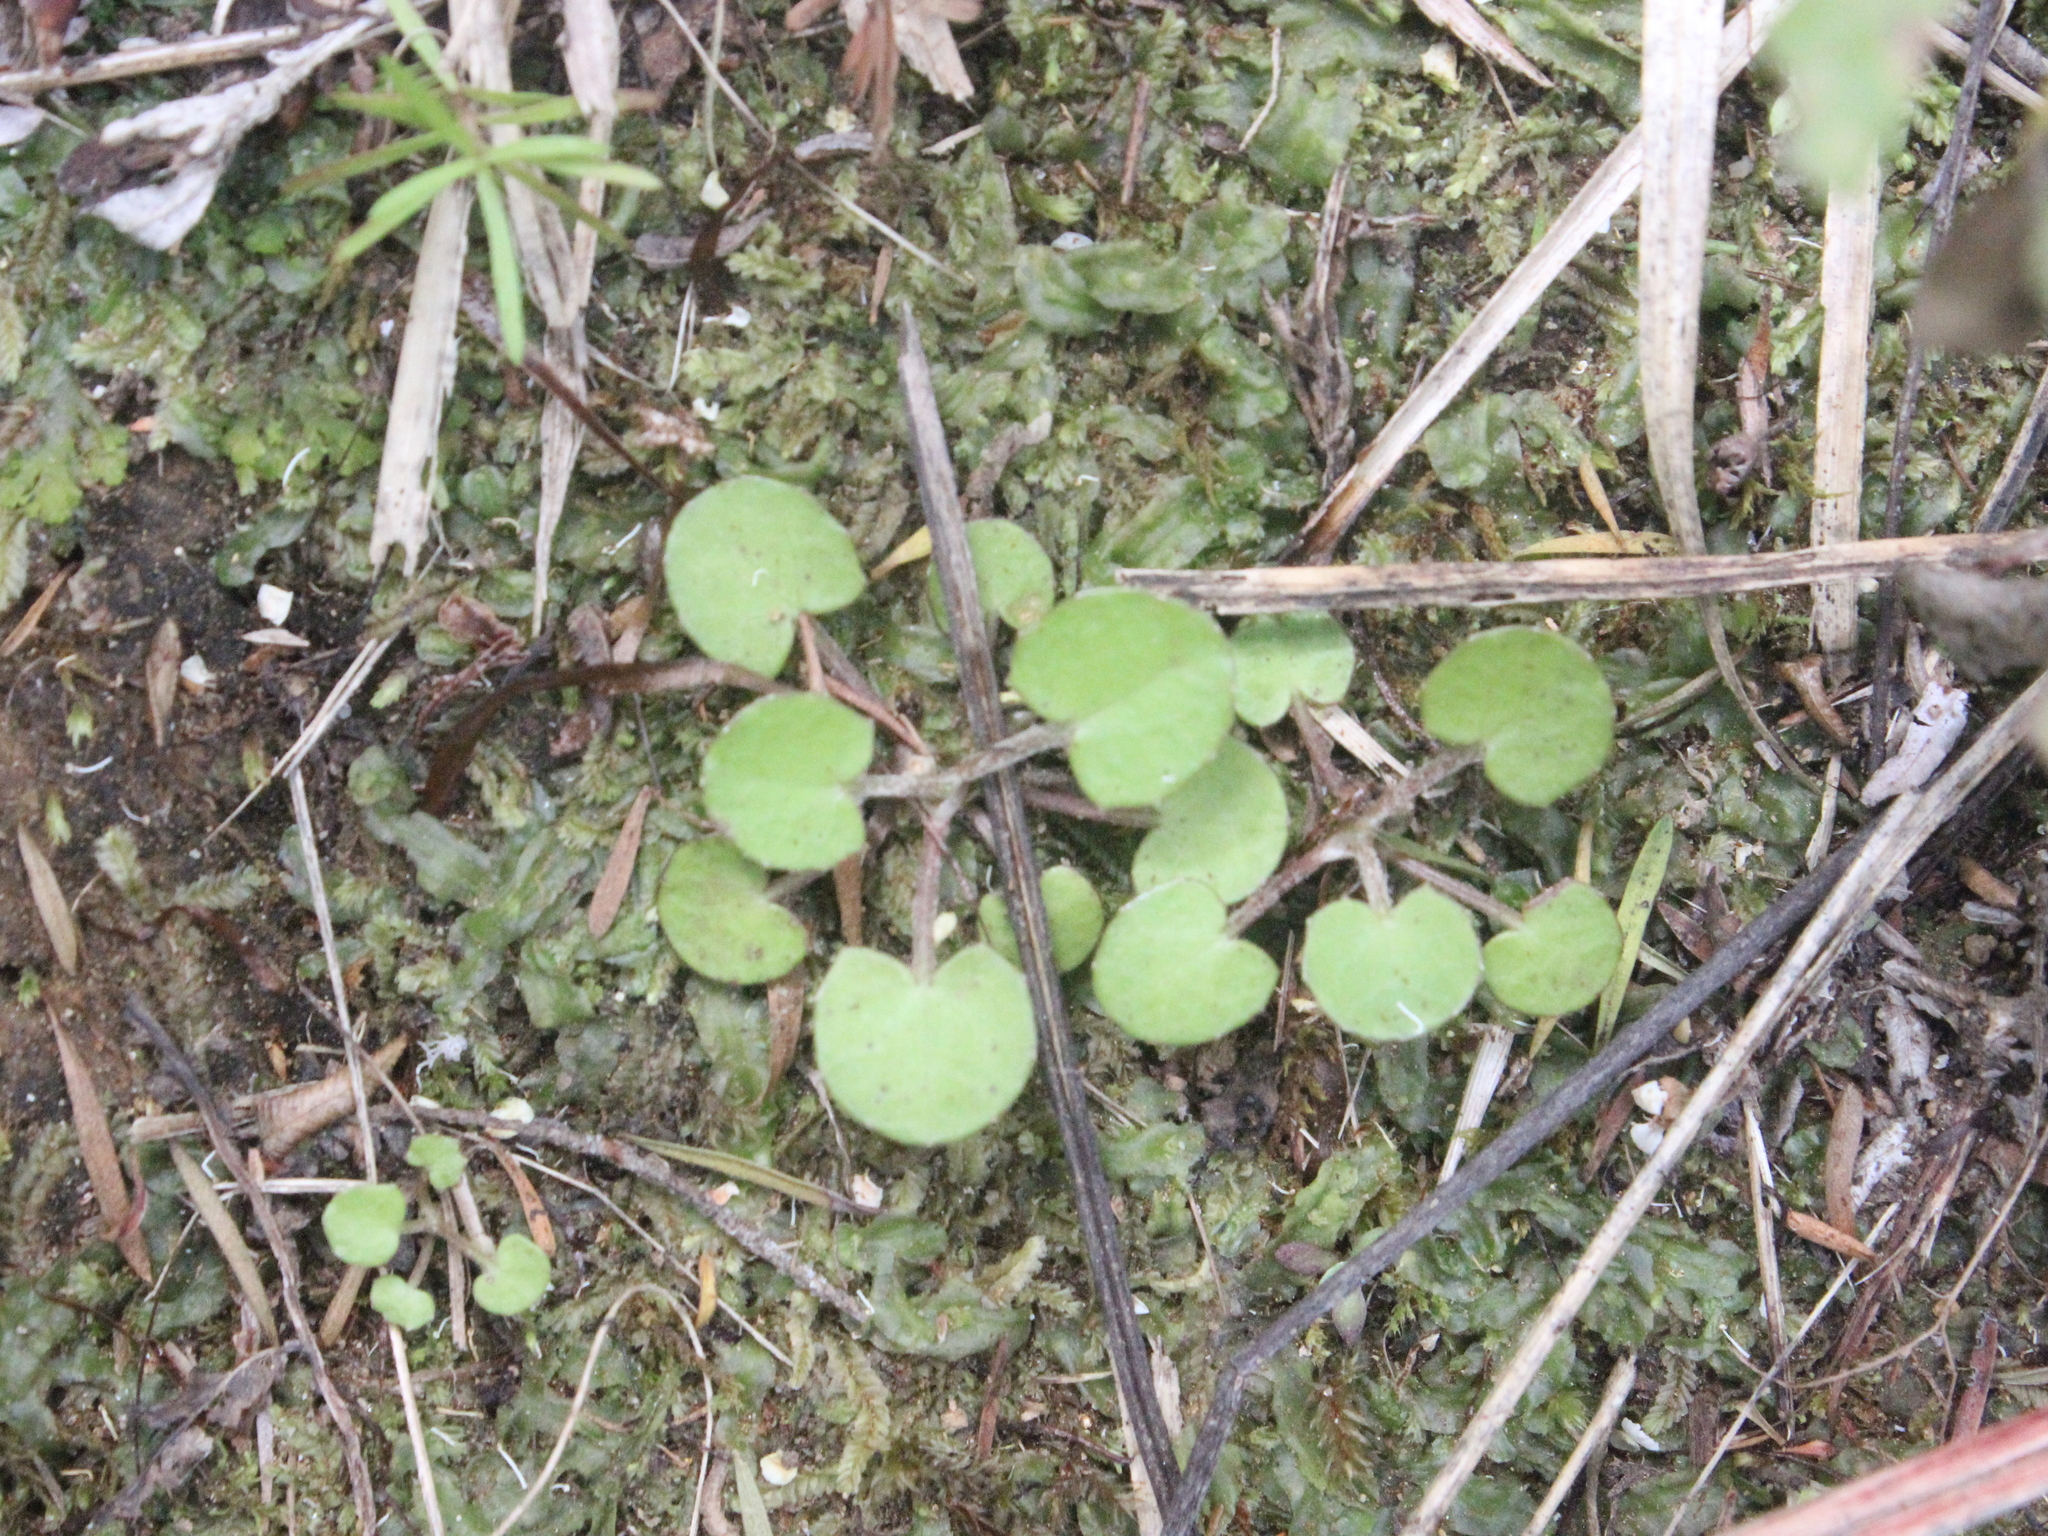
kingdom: Plantae
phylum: Tracheophyta
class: Magnoliopsida
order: Apiales
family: Apiaceae
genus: Centella
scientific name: Centella uniflora
